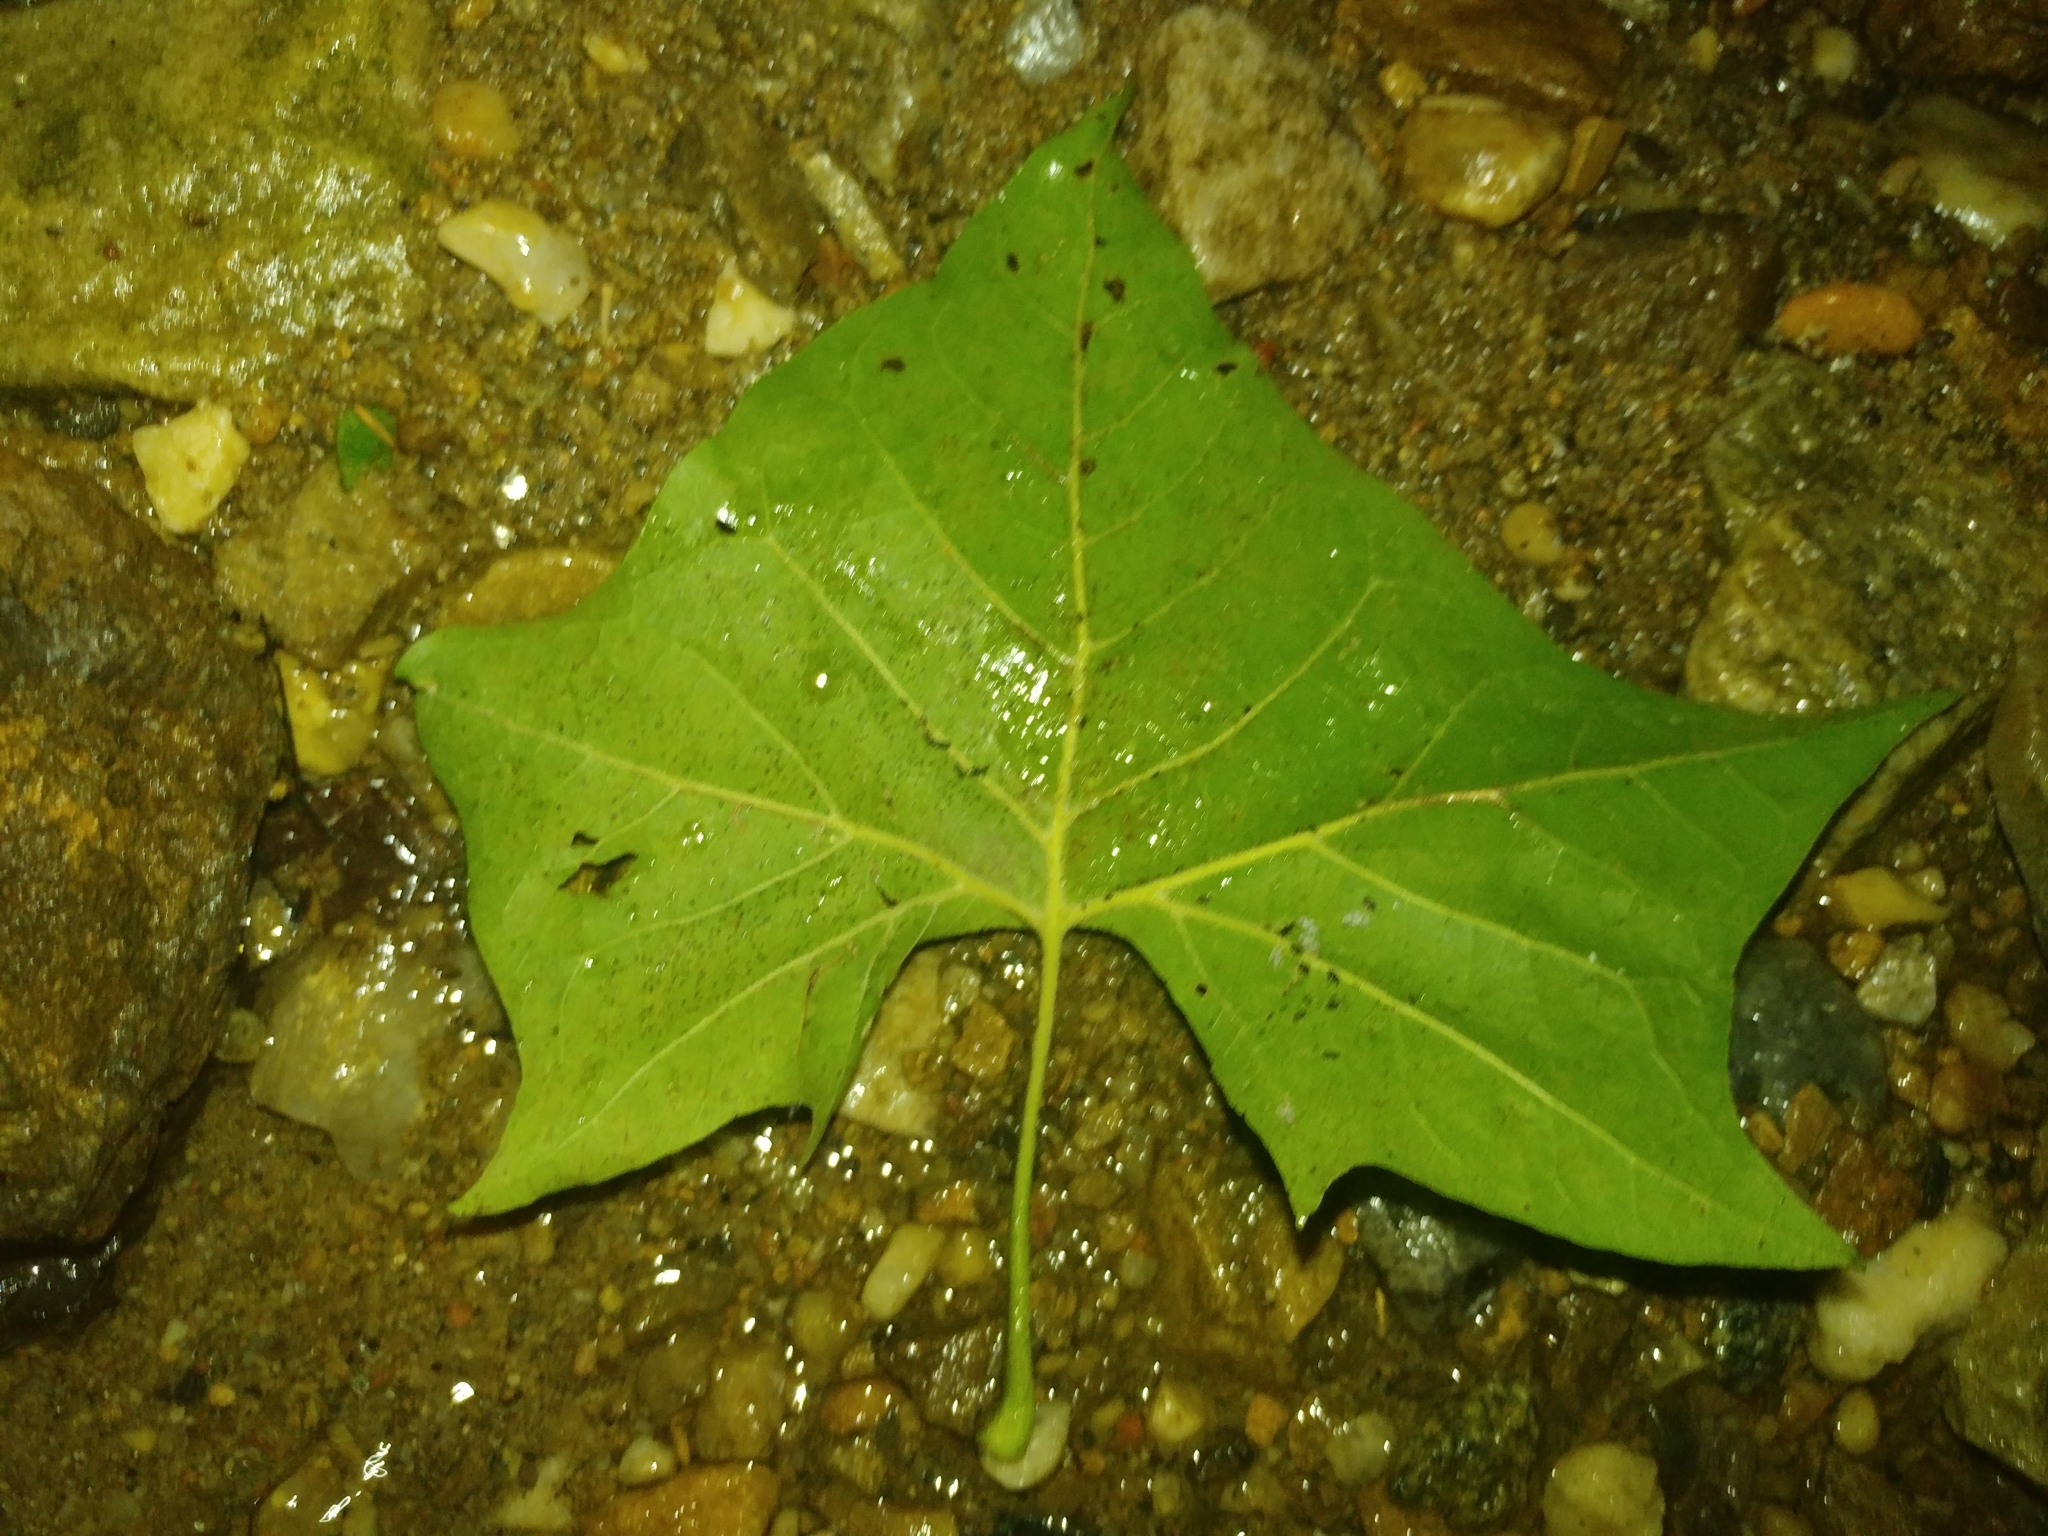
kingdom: Plantae
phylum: Tracheophyta
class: Magnoliopsida
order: Proteales
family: Platanaceae
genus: Platanus
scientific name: Platanus occidentalis
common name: American sycamore
